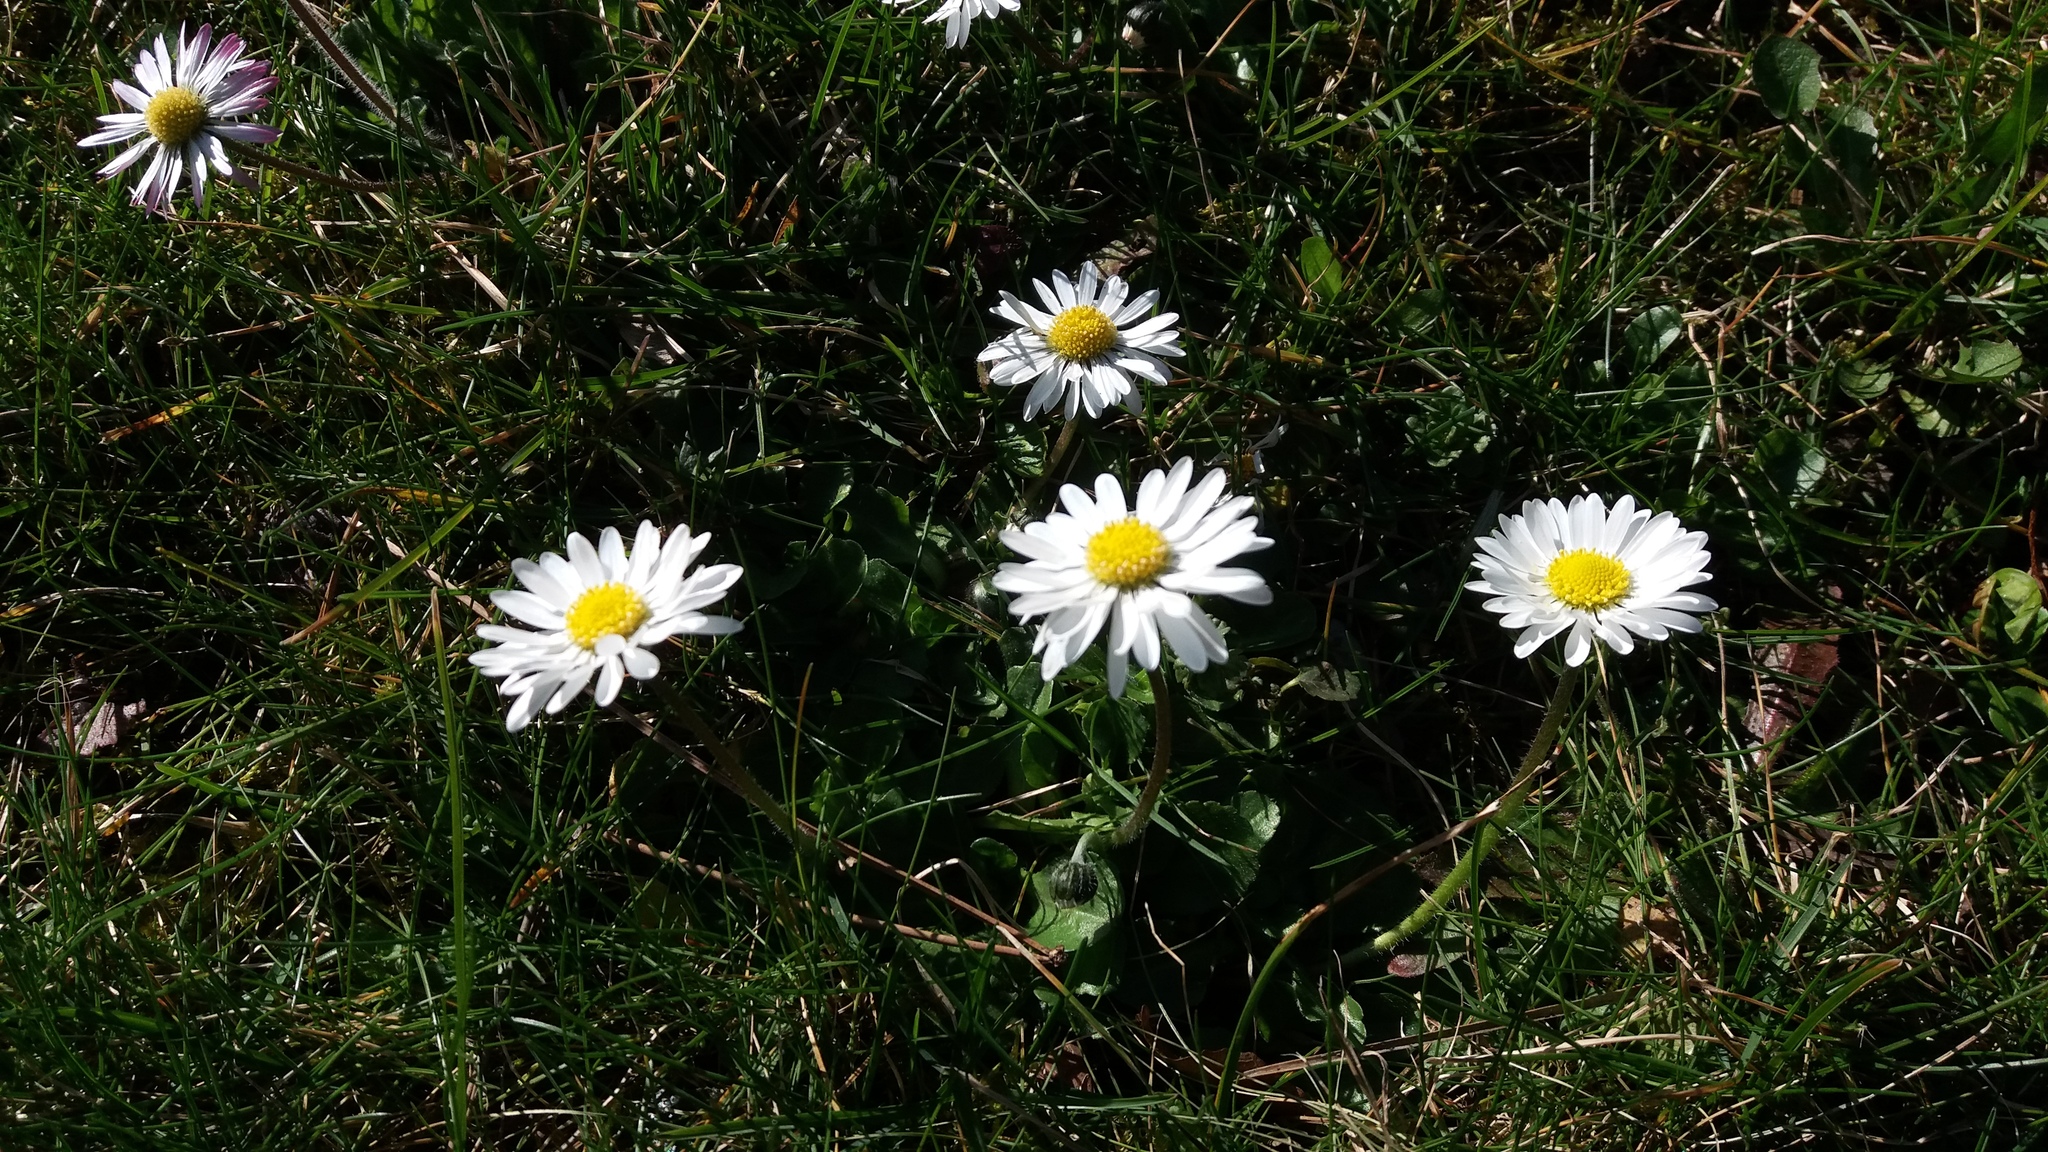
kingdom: Plantae
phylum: Tracheophyta
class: Magnoliopsida
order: Asterales
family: Asteraceae
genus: Bellis
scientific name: Bellis perennis
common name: Lawndaisy
